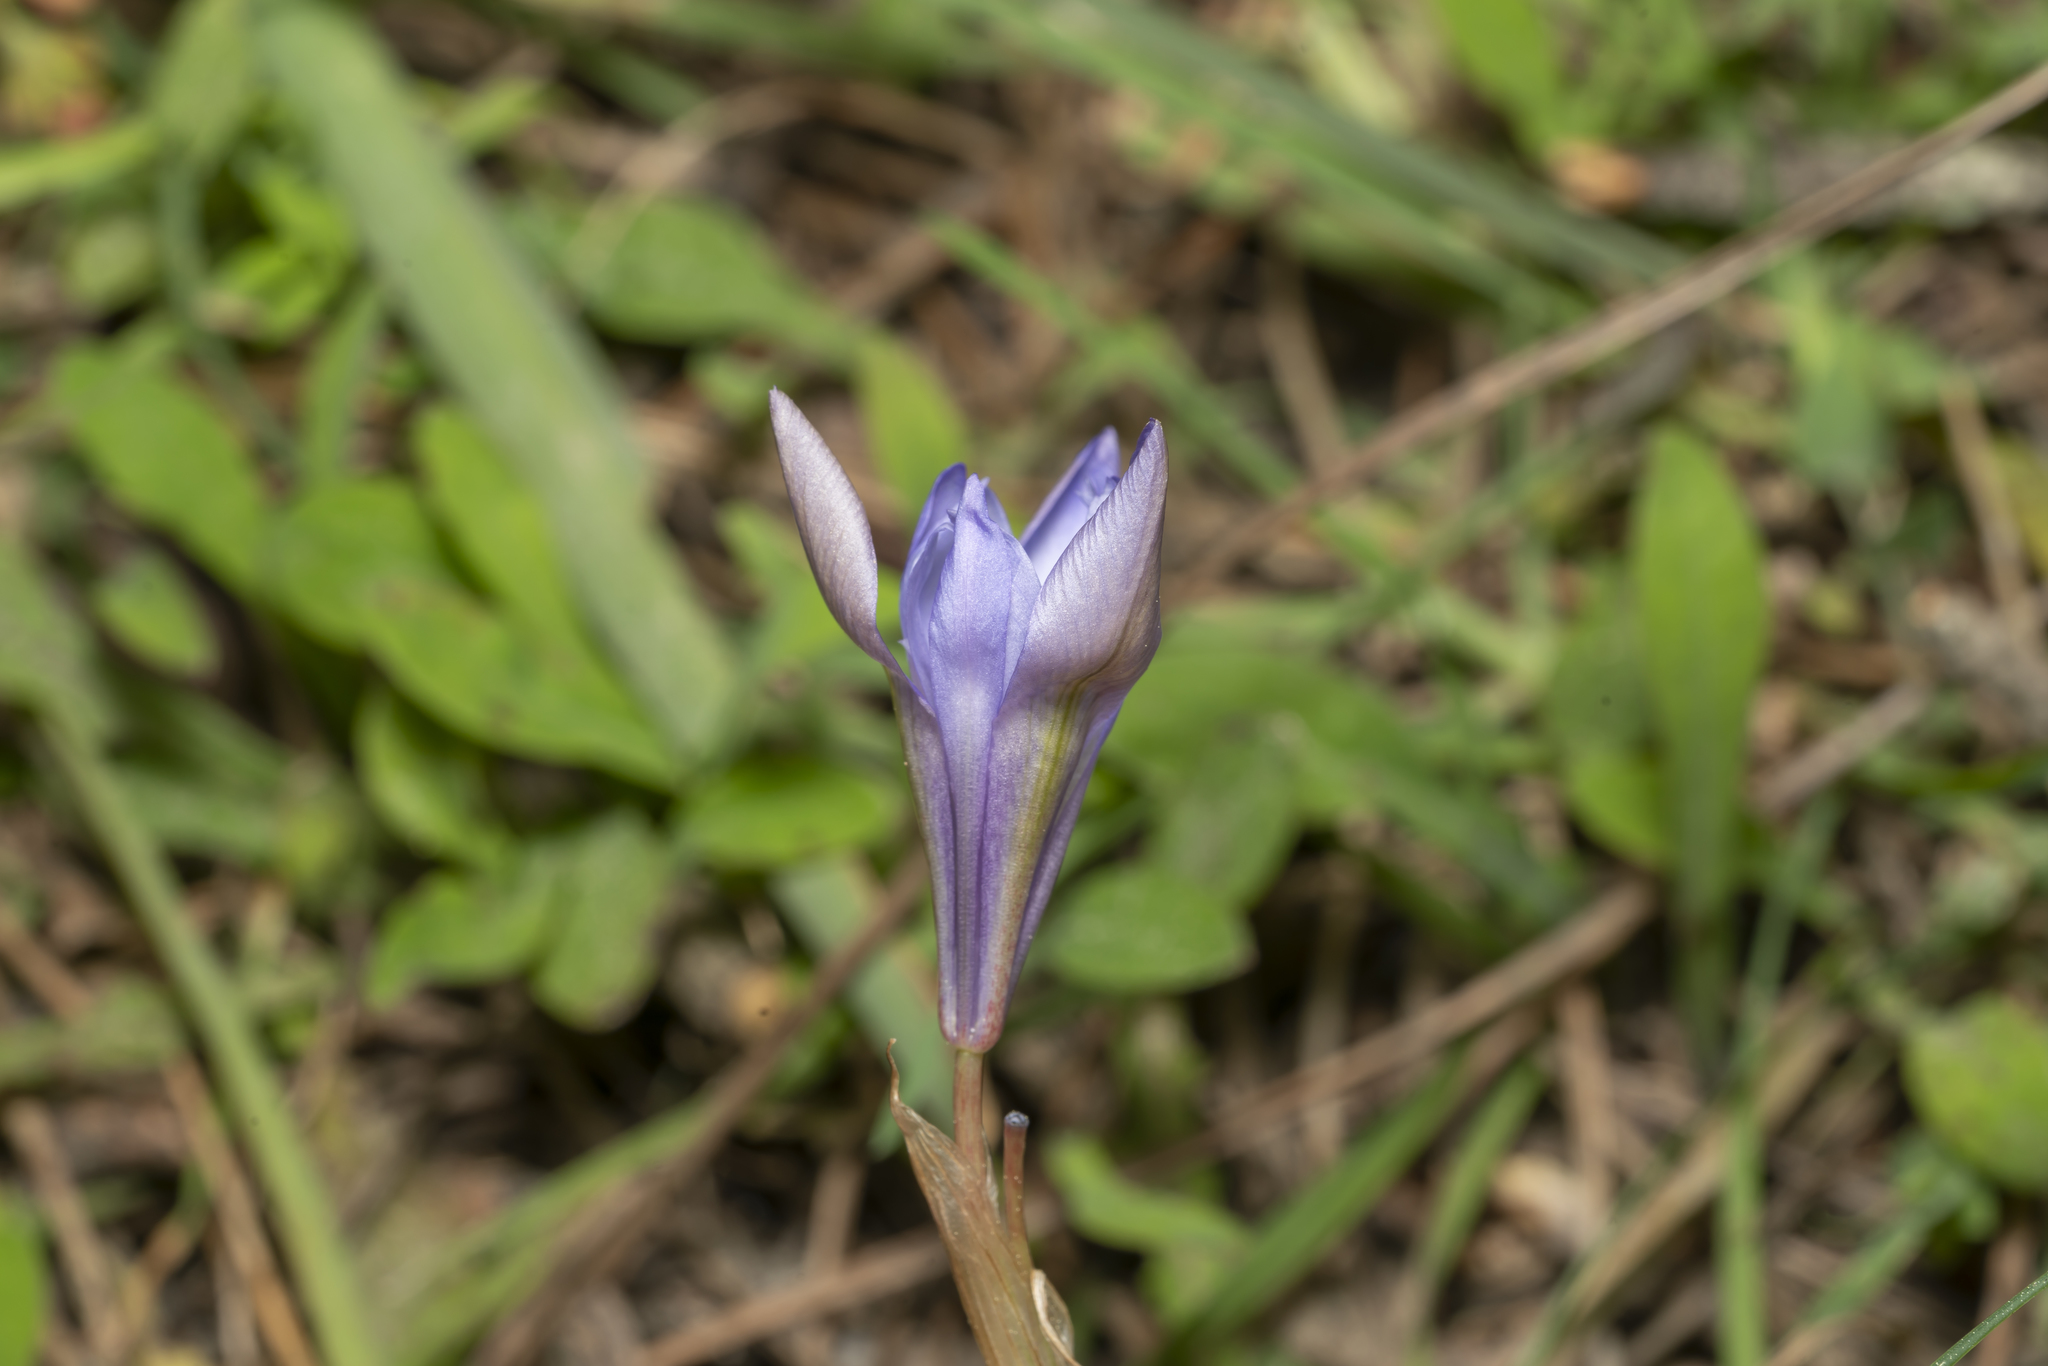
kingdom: Plantae
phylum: Tracheophyta
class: Liliopsida
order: Asparagales
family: Iridaceae
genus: Moraea
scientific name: Moraea sisyrinchium
